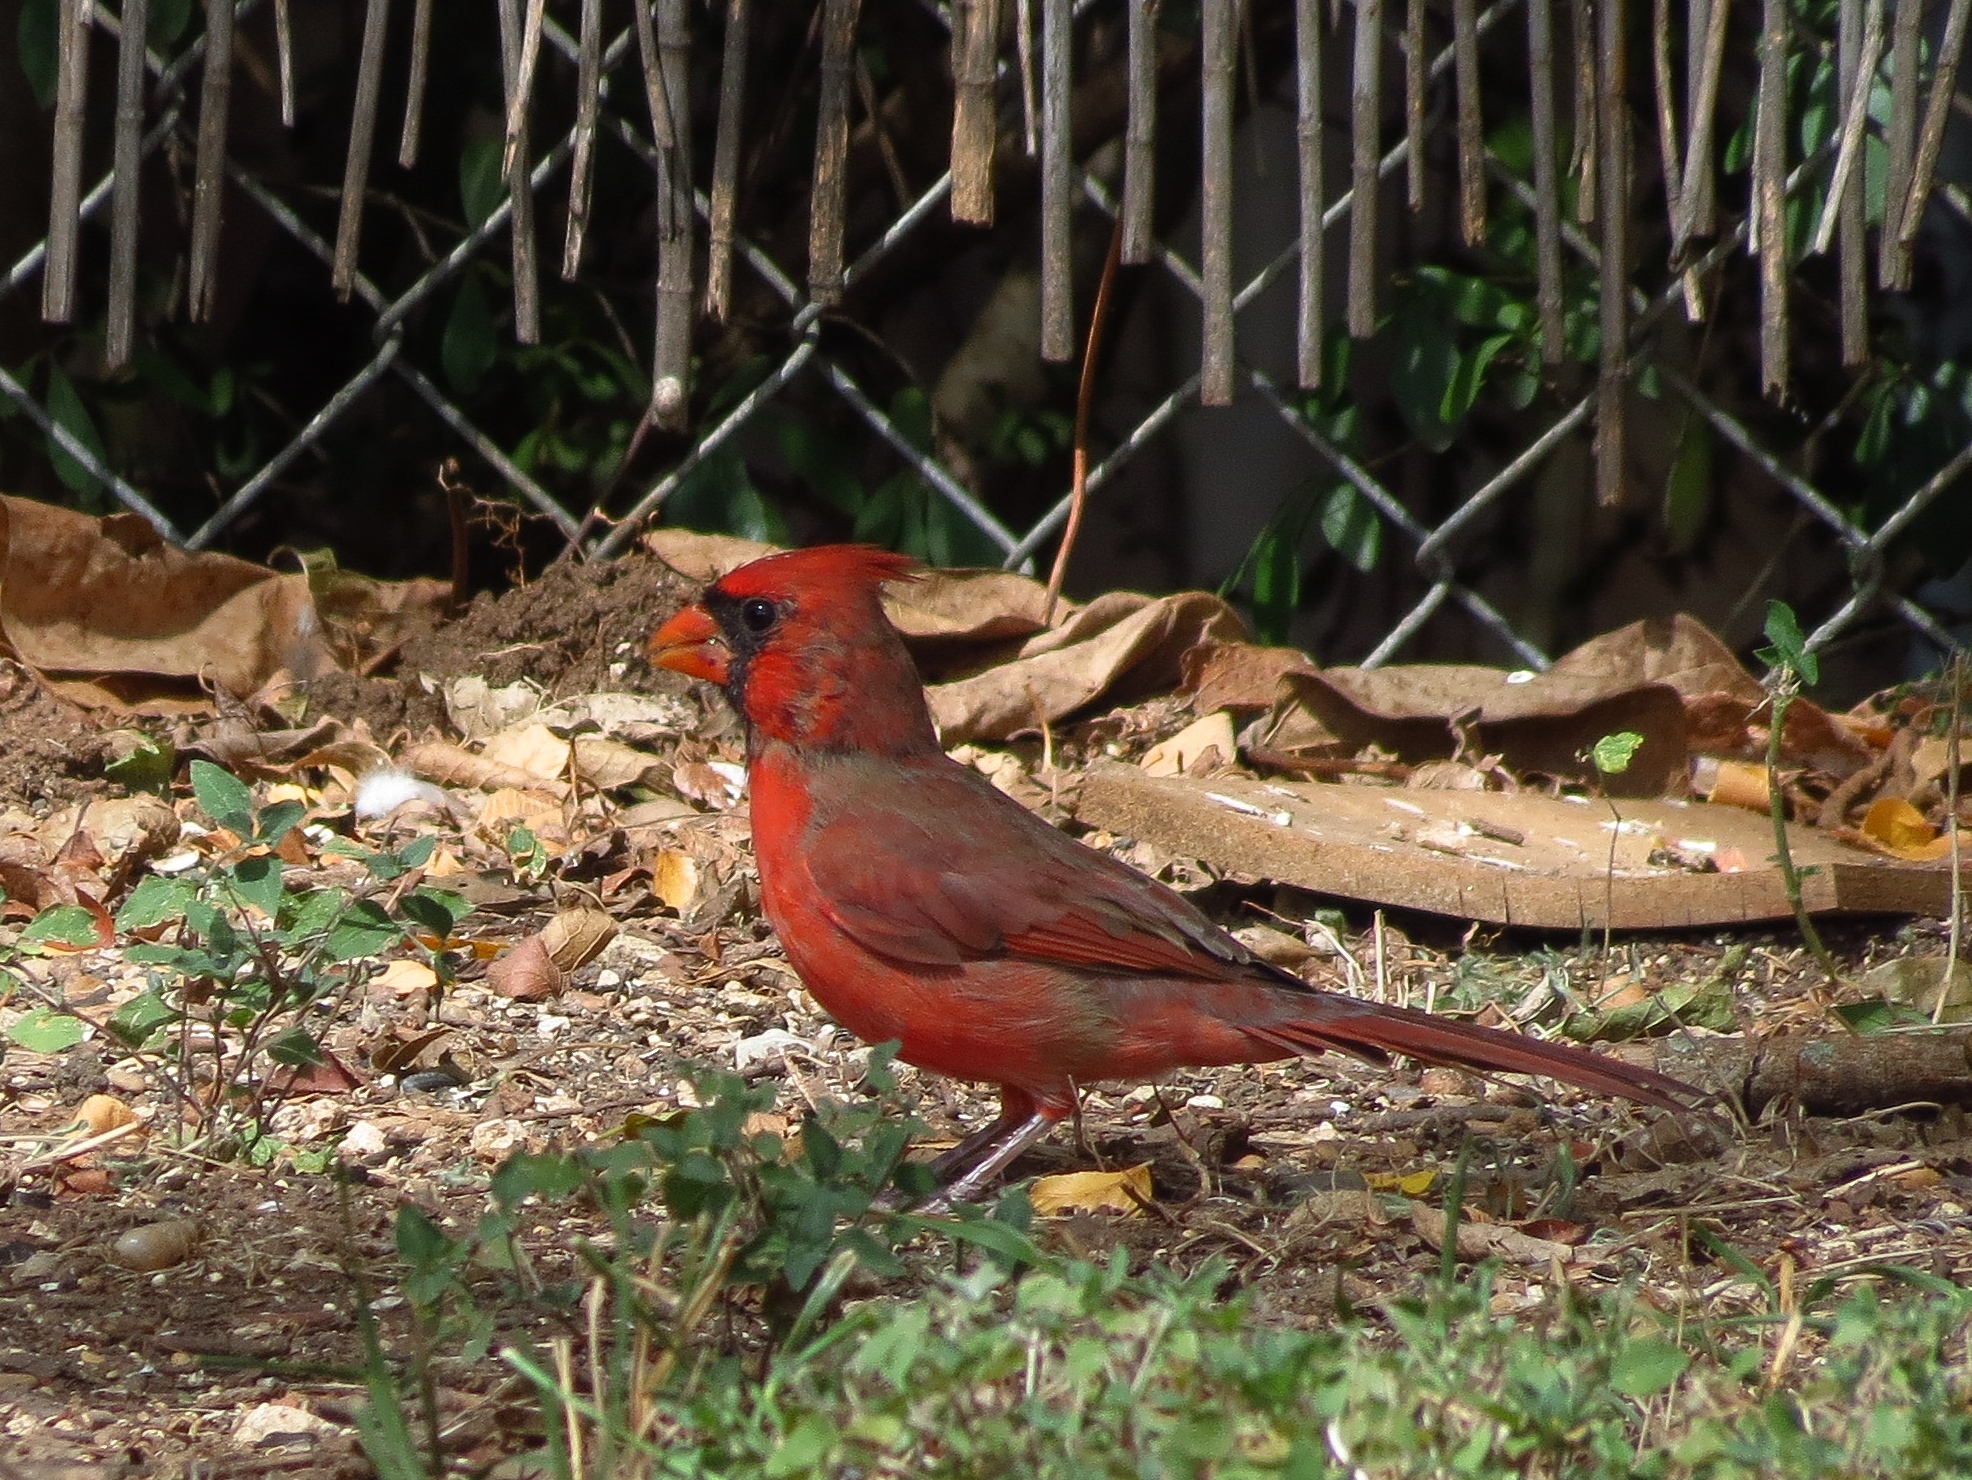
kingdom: Animalia
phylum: Chordata
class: Aves
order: Passeriformes
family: Cardinalidae
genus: Cardinalis
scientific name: Cardinalis cardinalis
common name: Northern cardinal
